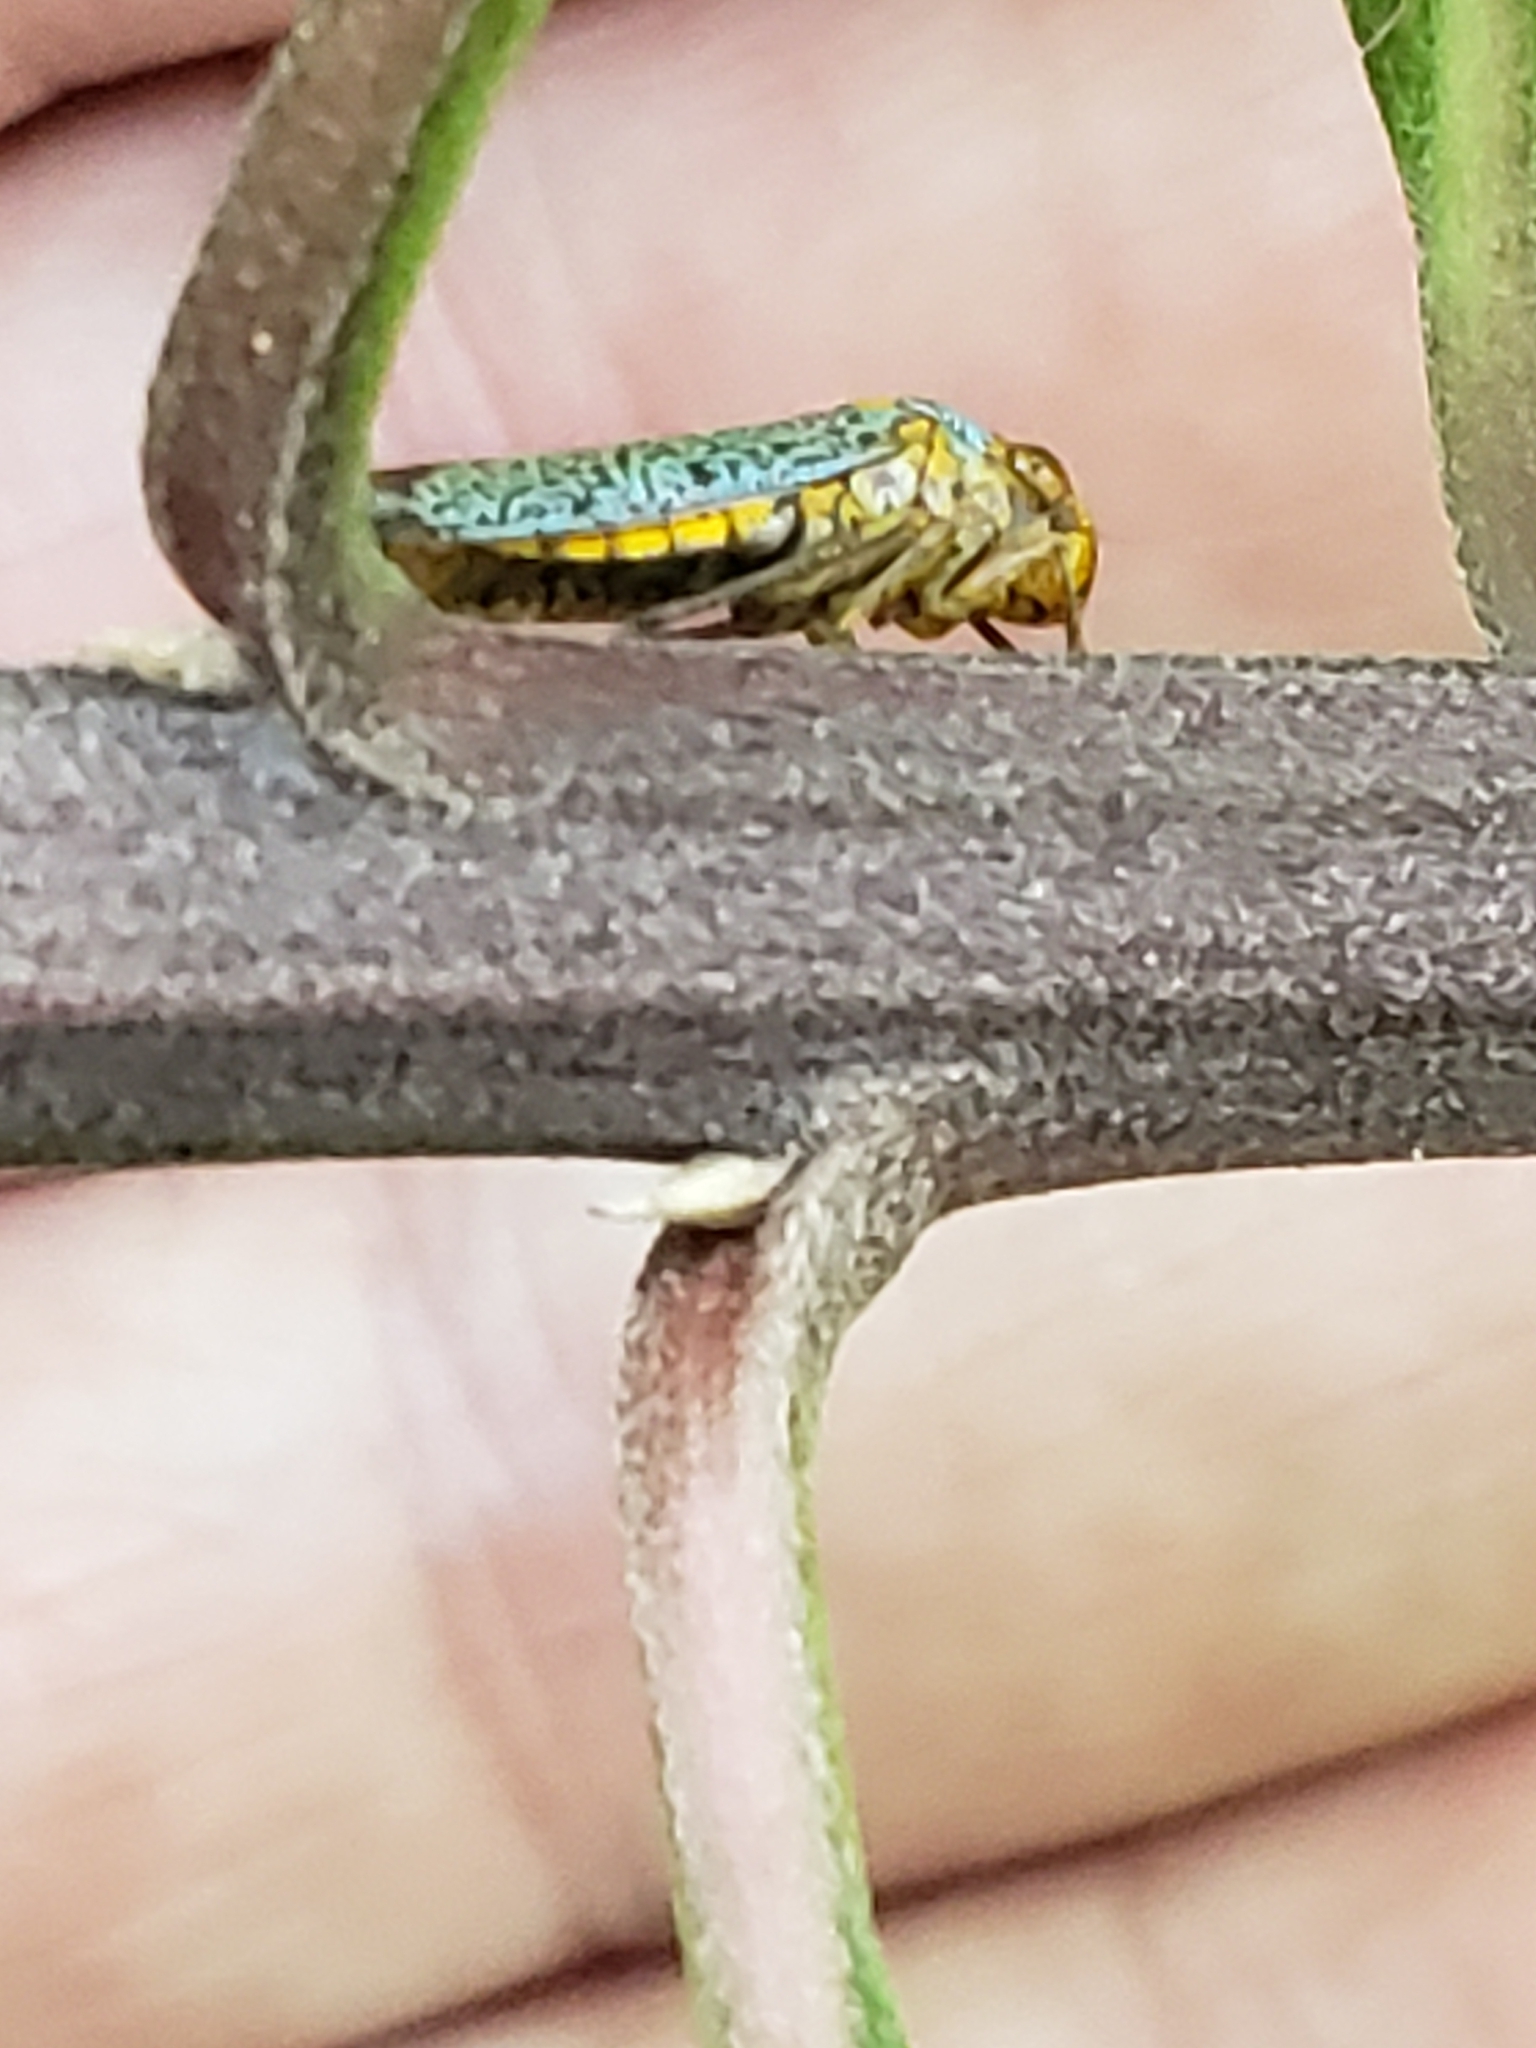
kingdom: Animalia
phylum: Arthropoda
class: Insecta
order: Hemiptera
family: Cicadellidae
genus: Oncometopia
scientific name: Oncometopia orbona
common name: Broad-headed sharpshooter
